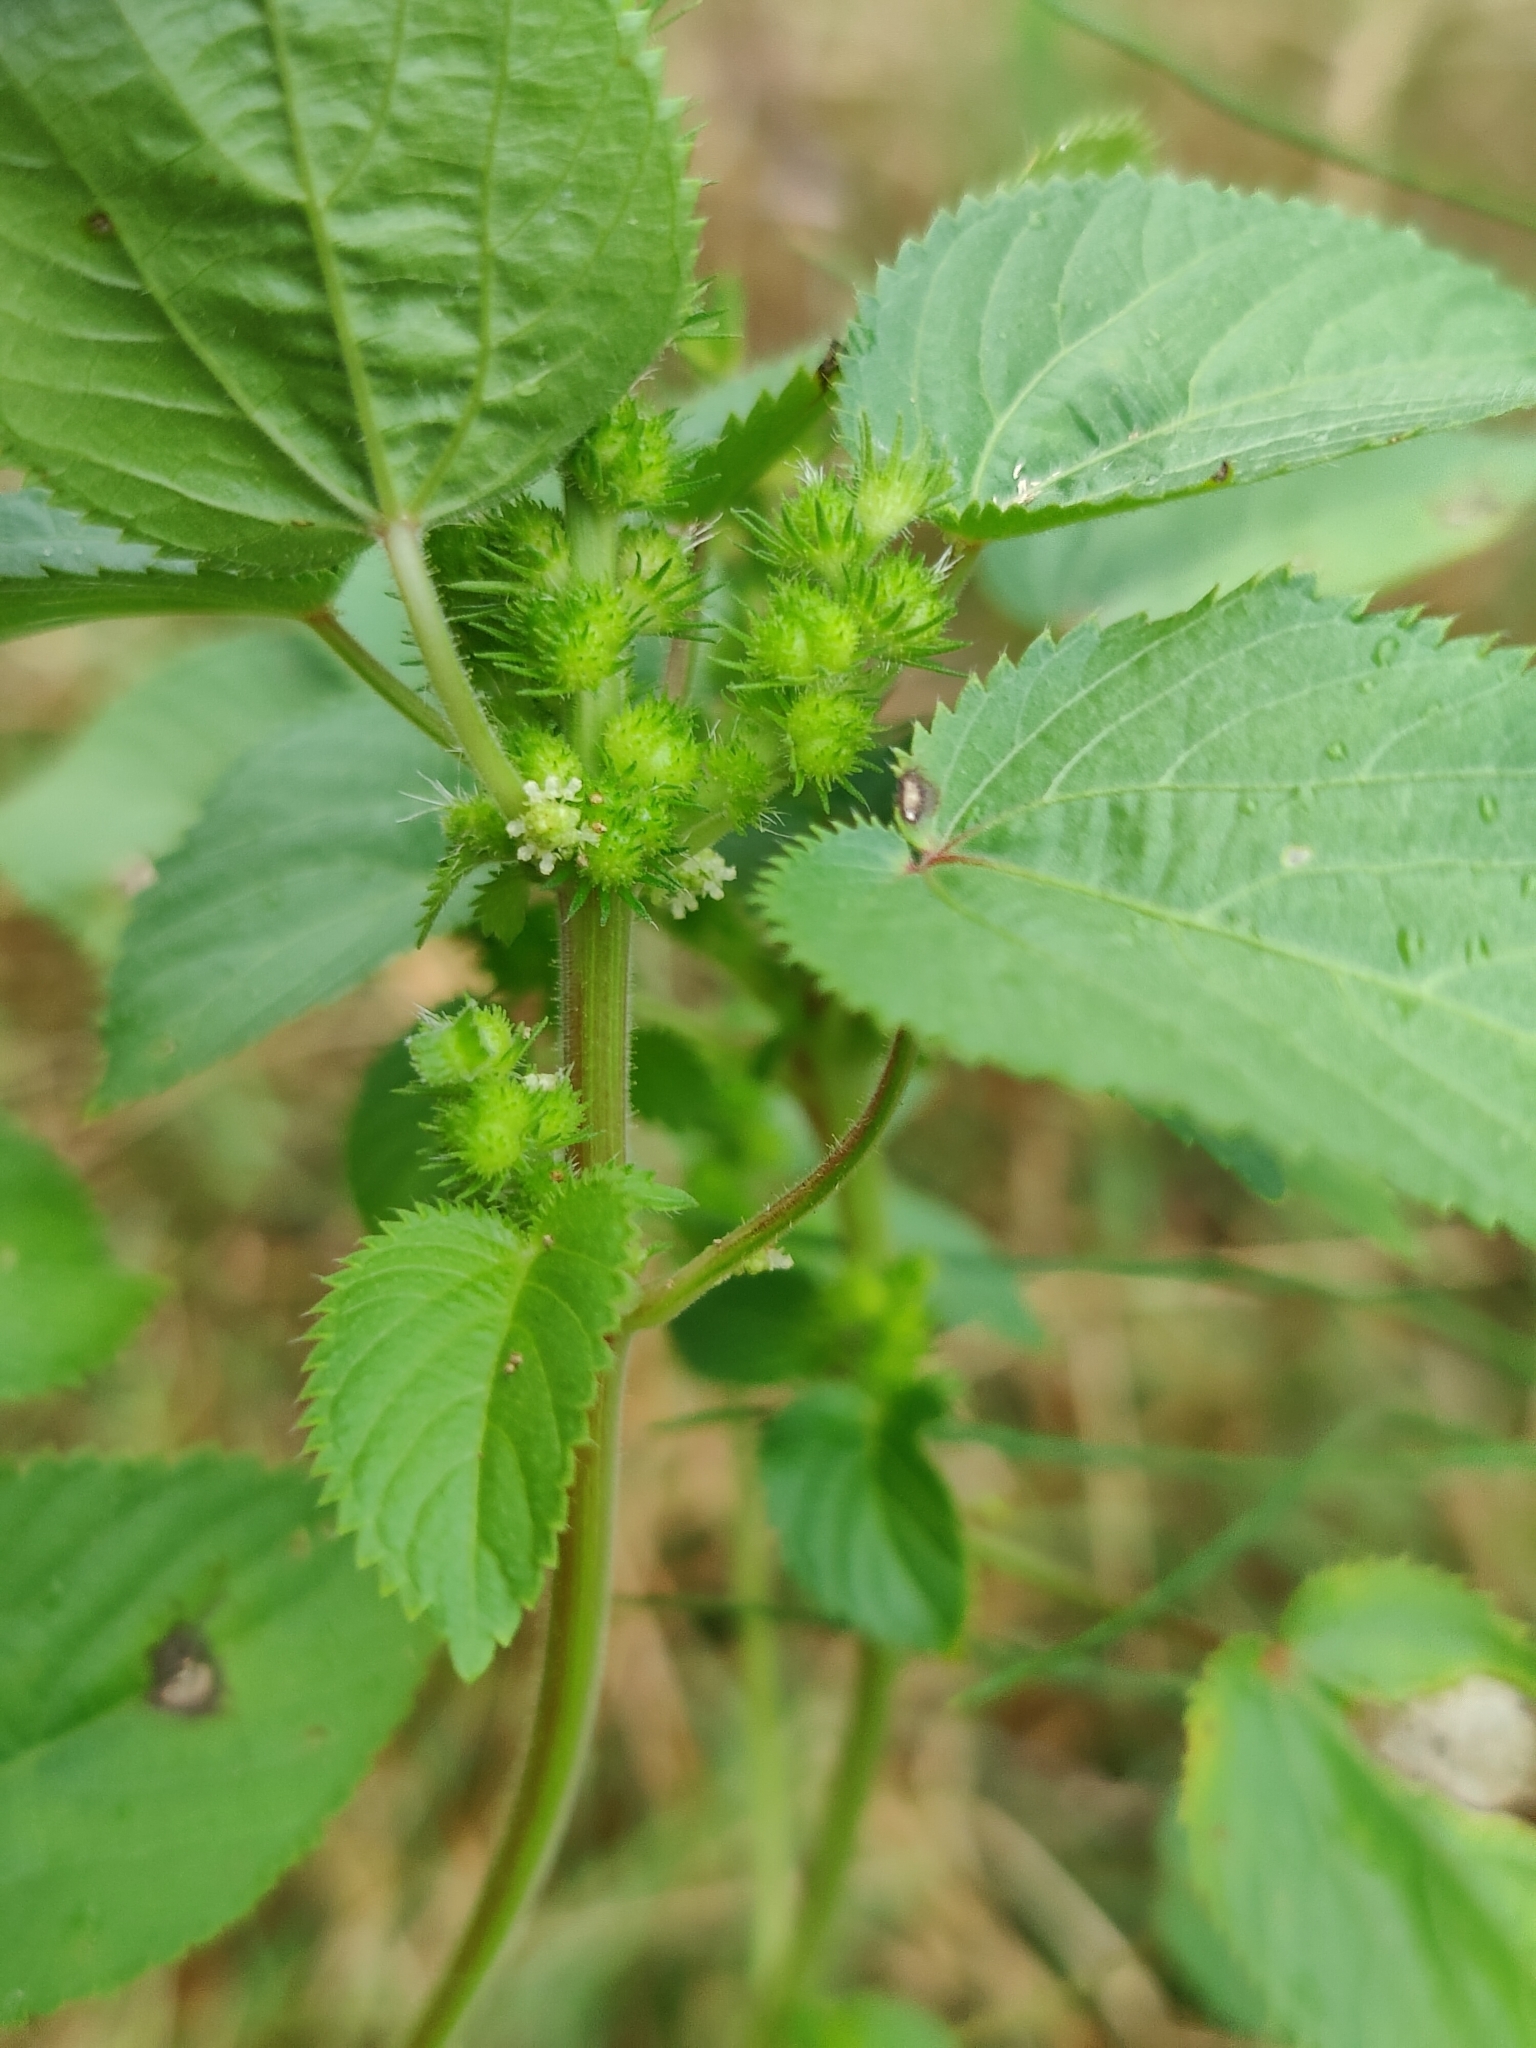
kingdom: Plantae
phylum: Tracheophyta
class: Magnoliopsida
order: Malpighiales
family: Euphorbiaceae
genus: Acalypha
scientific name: Acalypha ostryifolia
